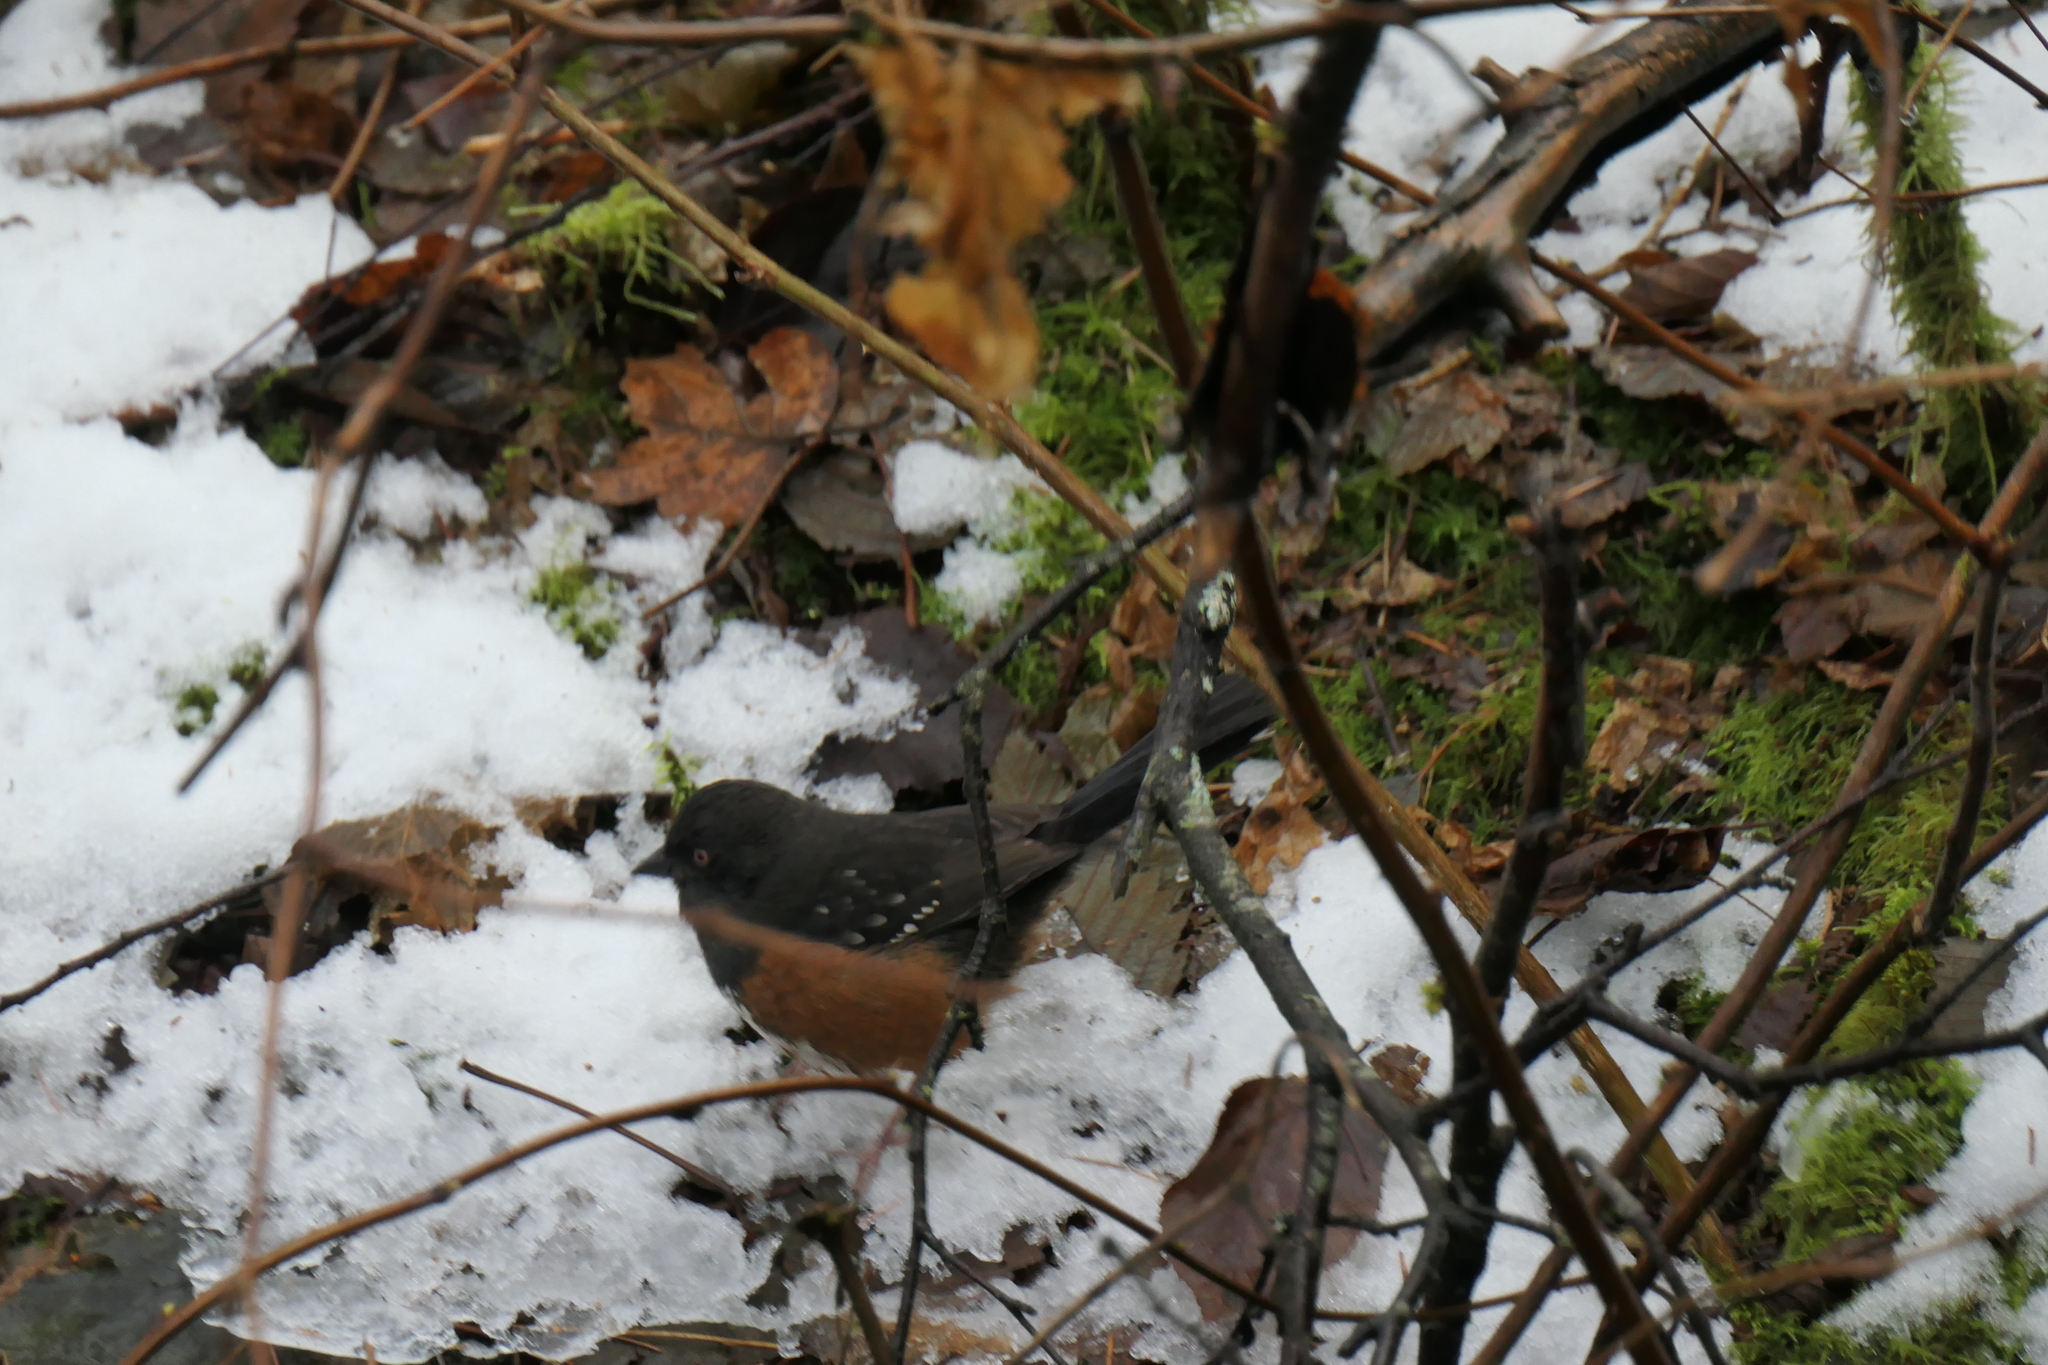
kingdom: Animalia
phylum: Chordata
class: Aves
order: Passeriformes
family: Passerellidae
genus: Pipilo
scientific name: Pipilo maculatus
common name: Spotted towhee
